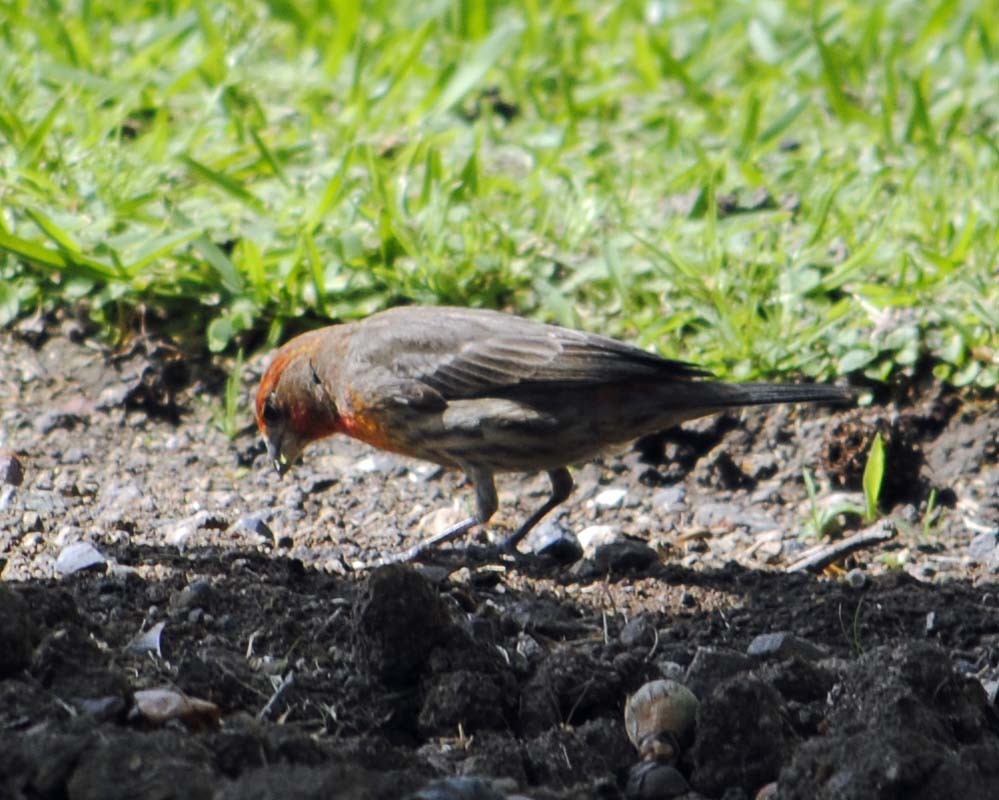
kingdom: Animalia
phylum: Chordata
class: Aves
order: Passeriformes
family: Fringillidae
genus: Haemorhous
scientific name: Haemorhous mexicanus
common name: House finch
